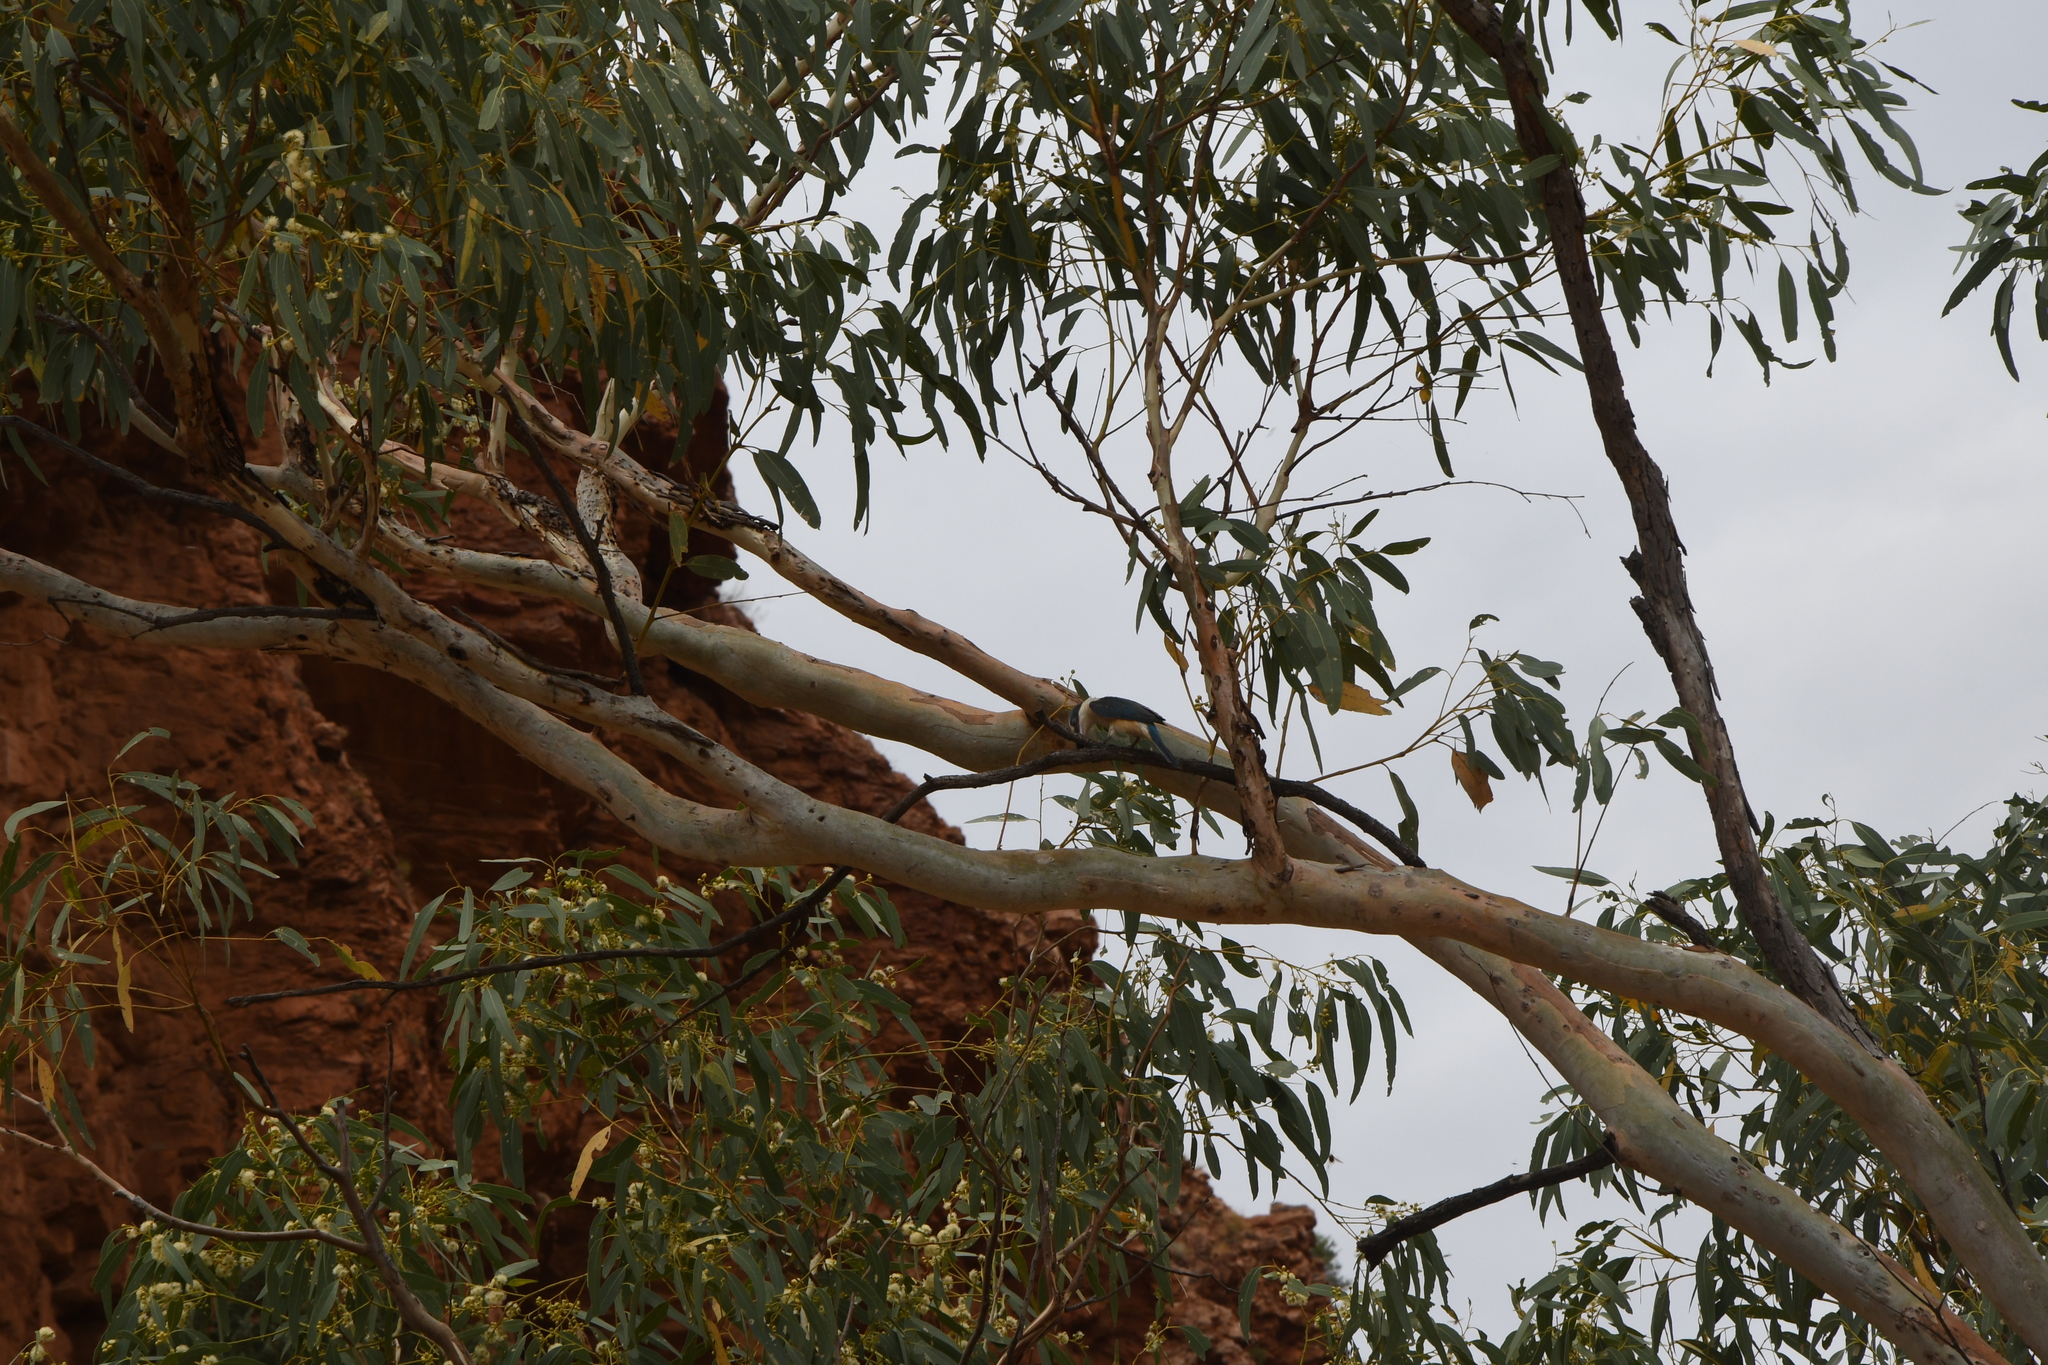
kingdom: Animalia
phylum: Chordata
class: Aves
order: Coraciiformes
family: Alcedinidae
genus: Todiramphus
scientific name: Todiramphus sanctus
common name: Sacred kingfisher
